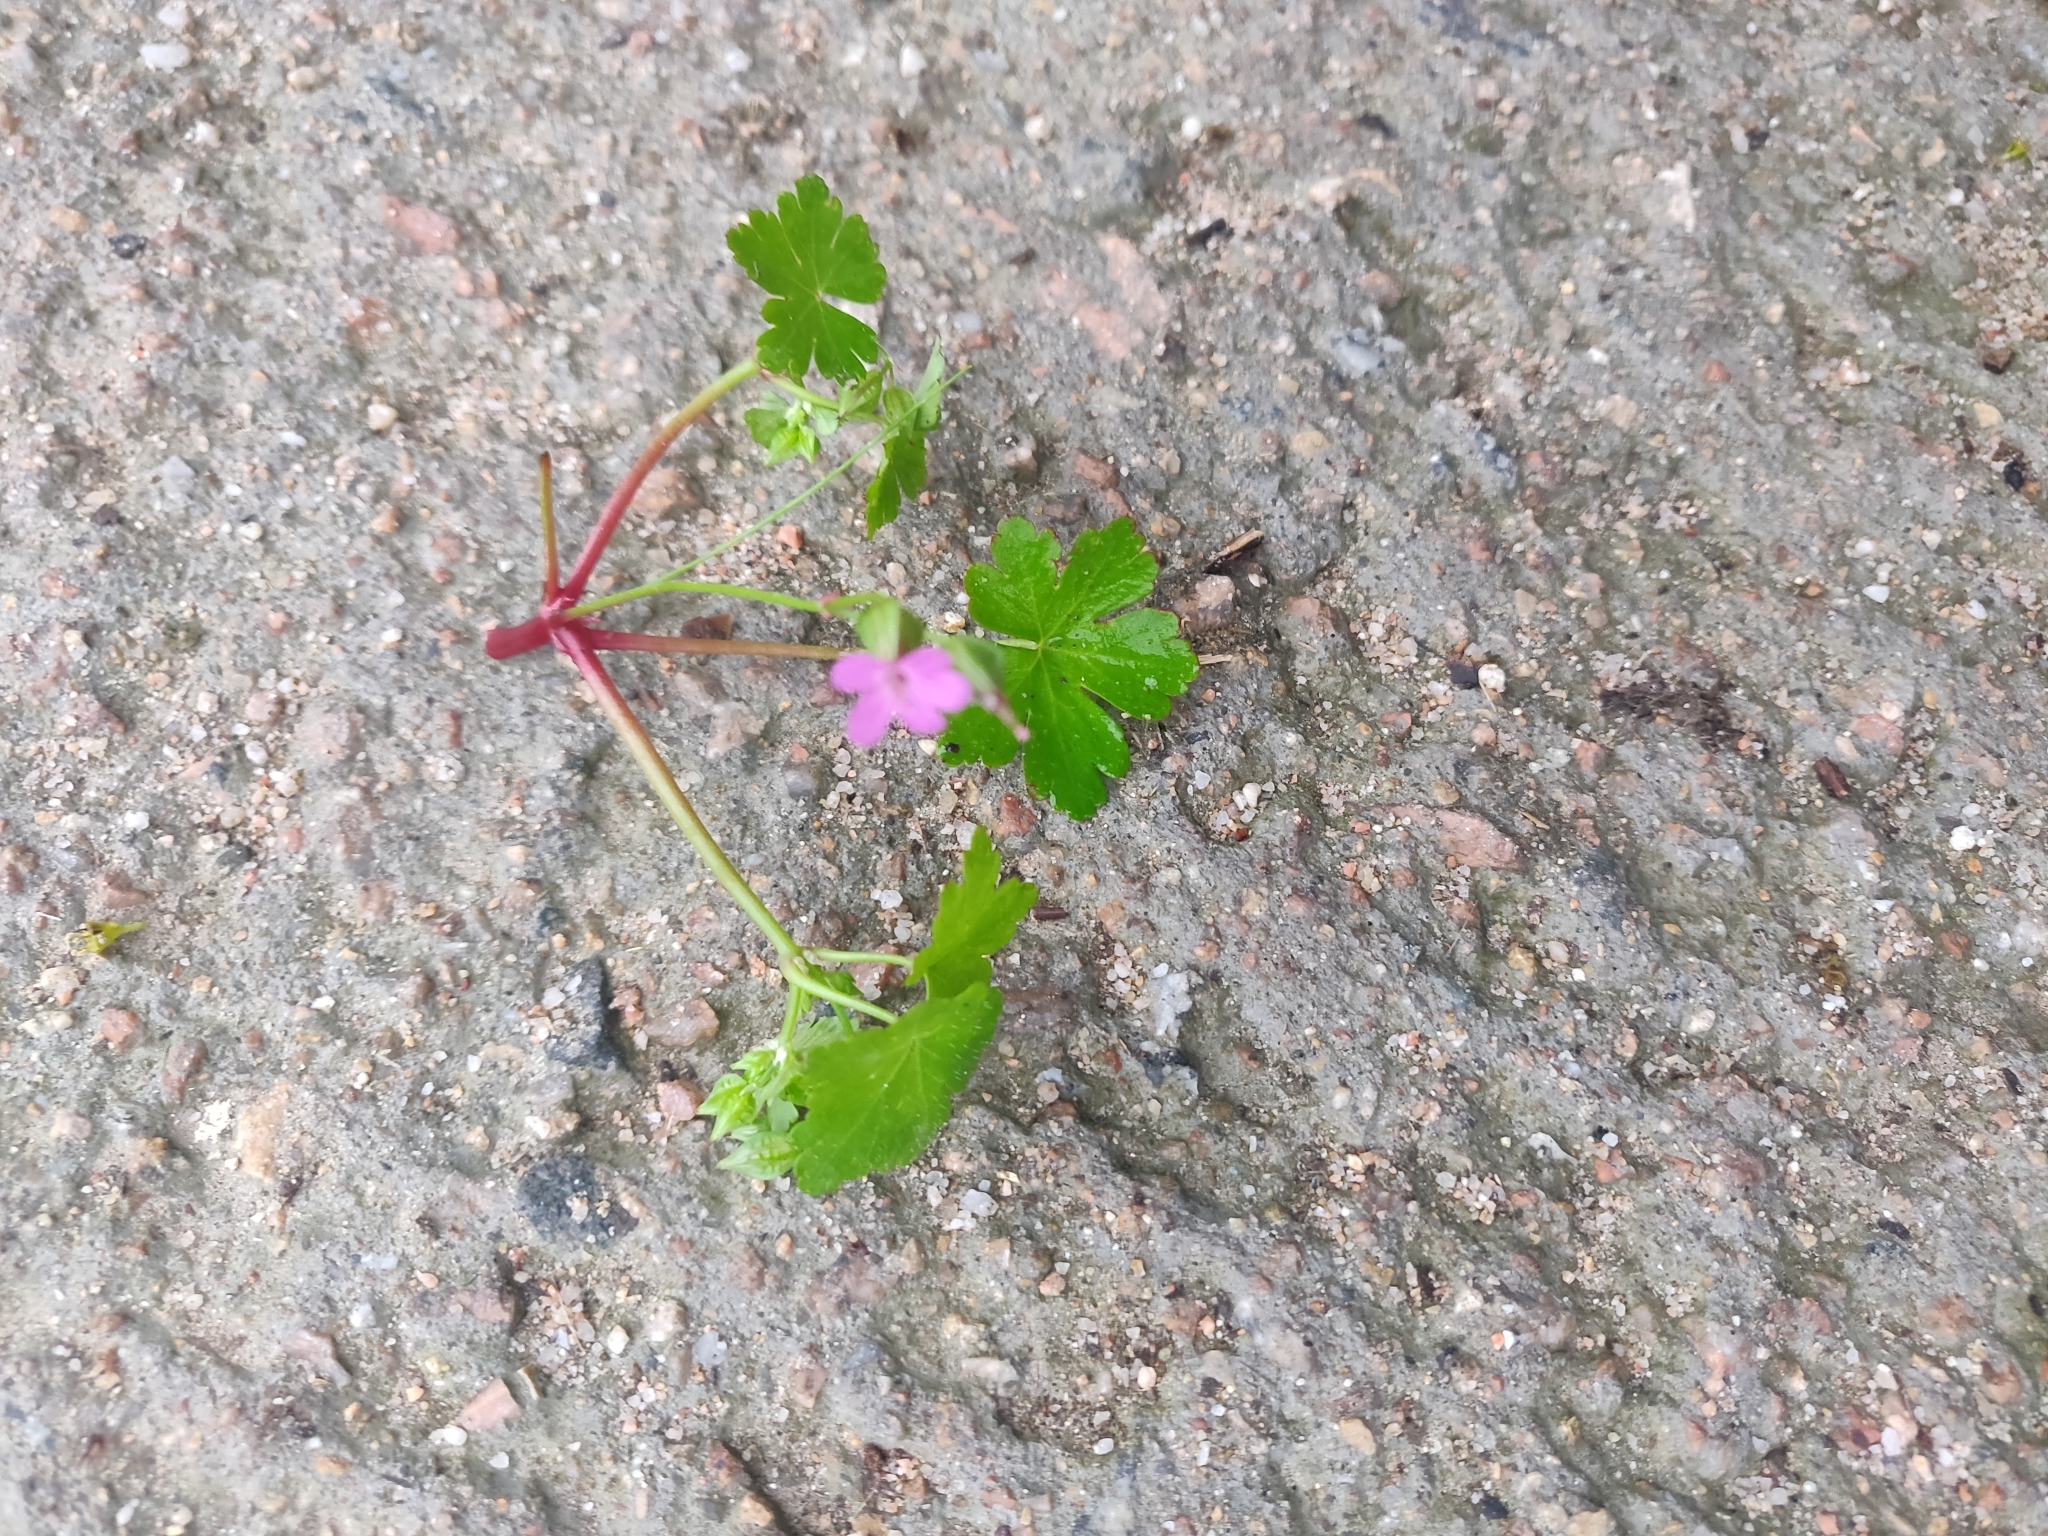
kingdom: Plantae
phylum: Tracheophyta
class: Magnoliopsida
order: Geraniales
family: Geraniaceae
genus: Geranium
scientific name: Geranium lucidum
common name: Shining crane's-bill
